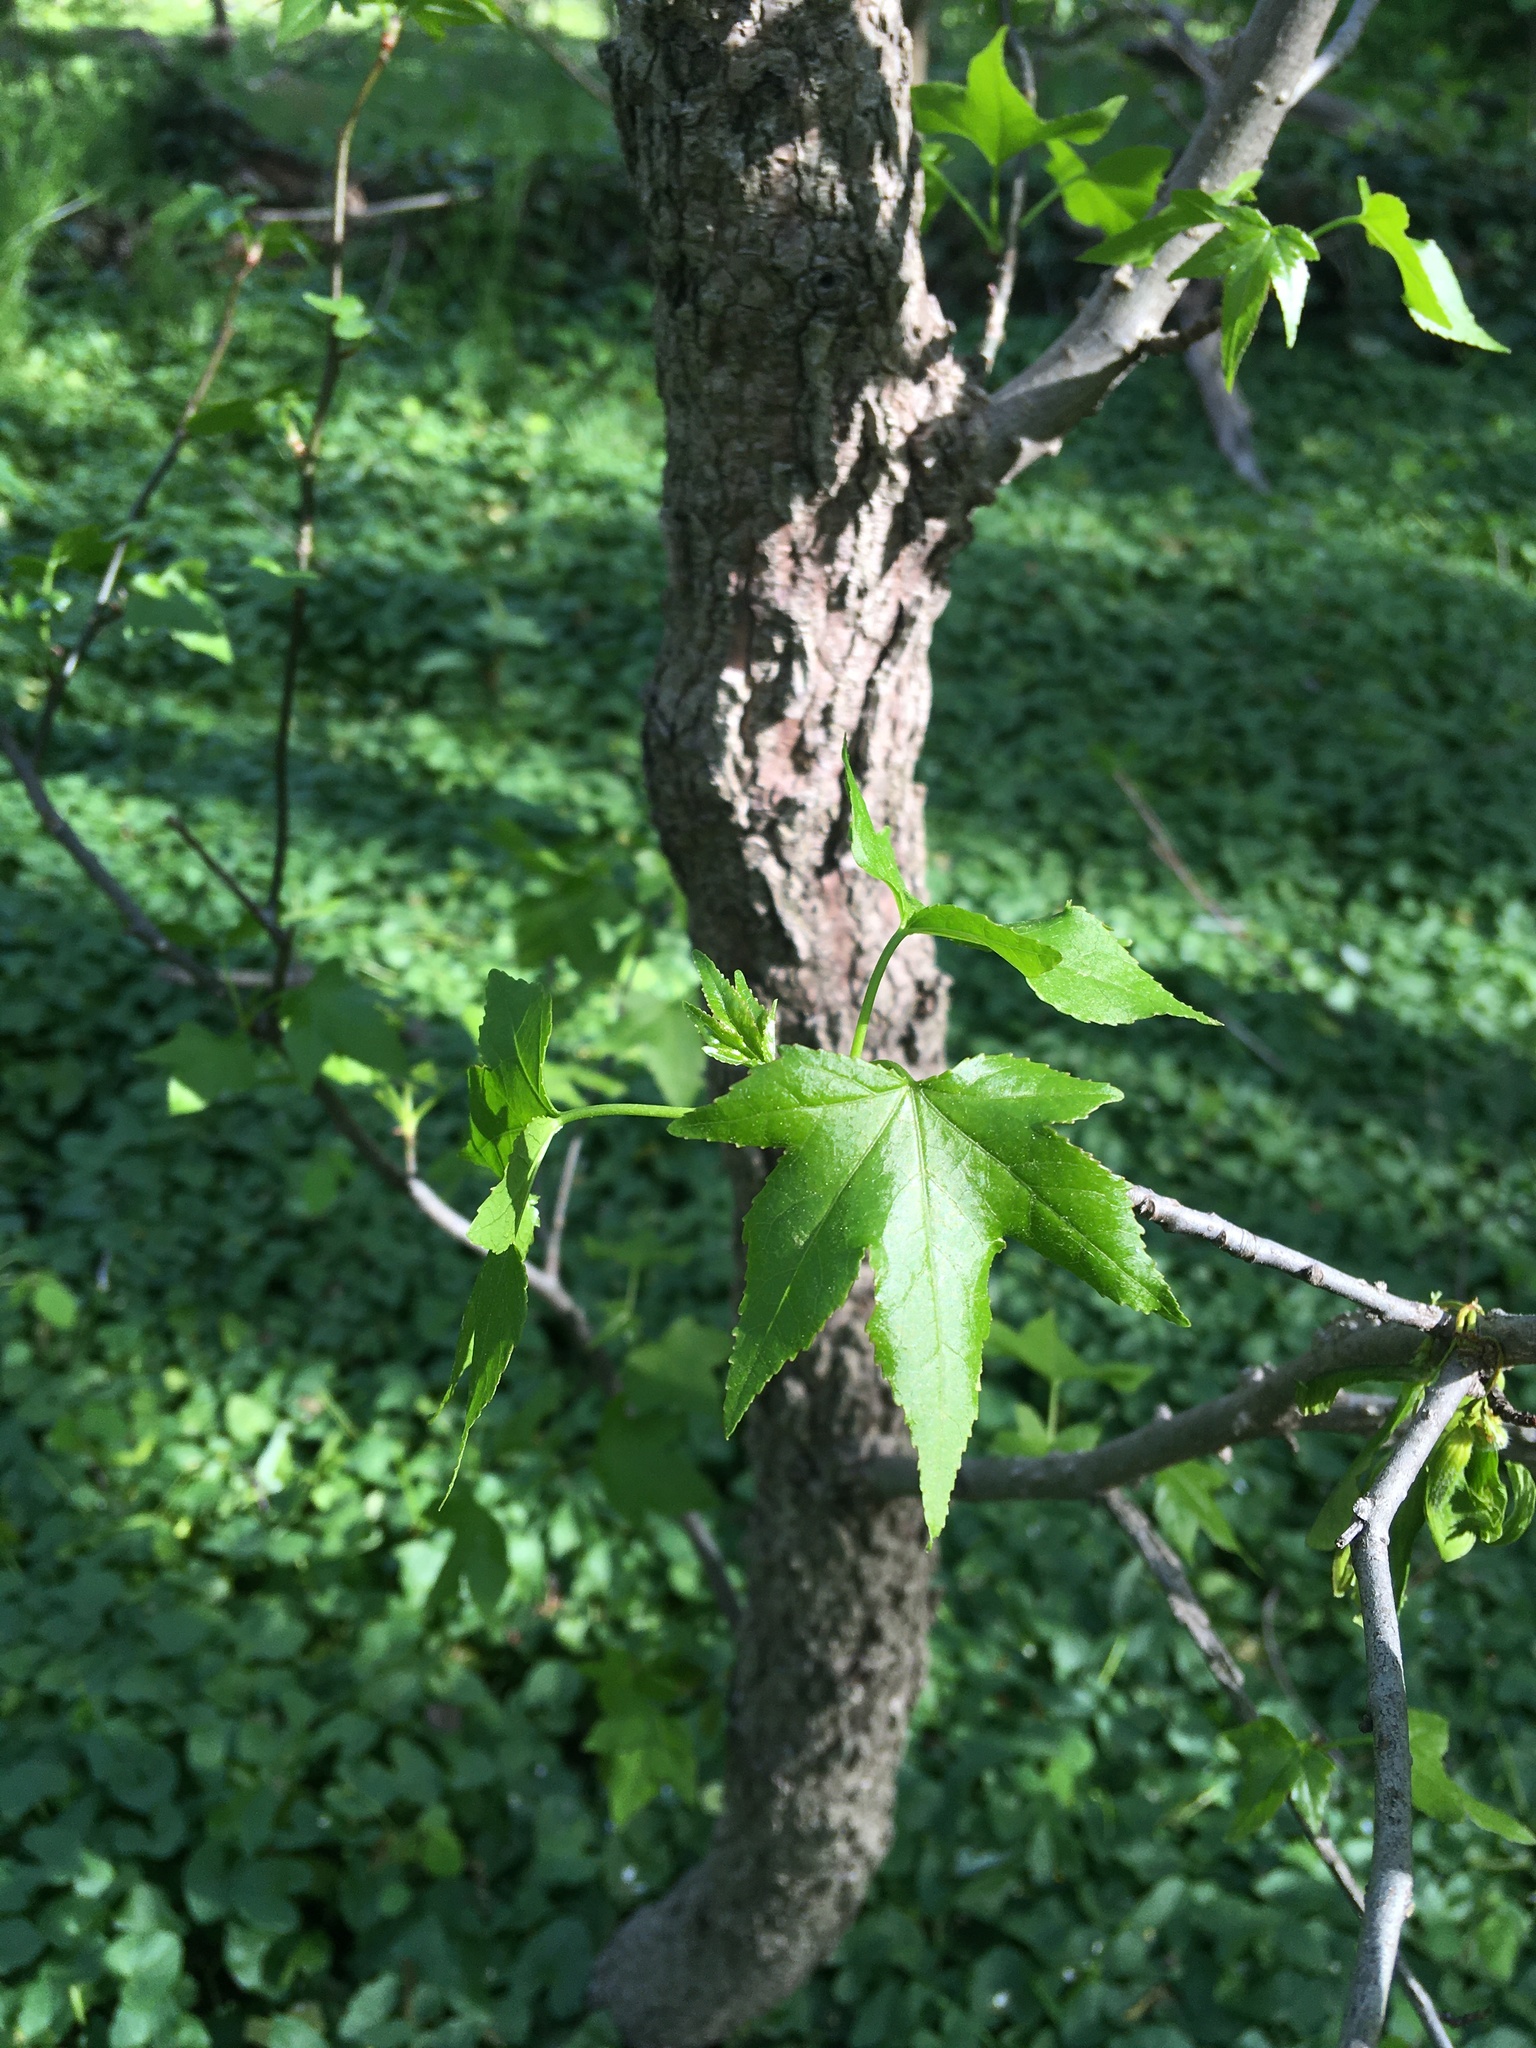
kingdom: Plantae
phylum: Tracheophyta
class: Magnoliopsida
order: Saxifragales
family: Altingiaceae
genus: Liquidambar
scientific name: Liquidambar styraciflua
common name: Sweet gum
